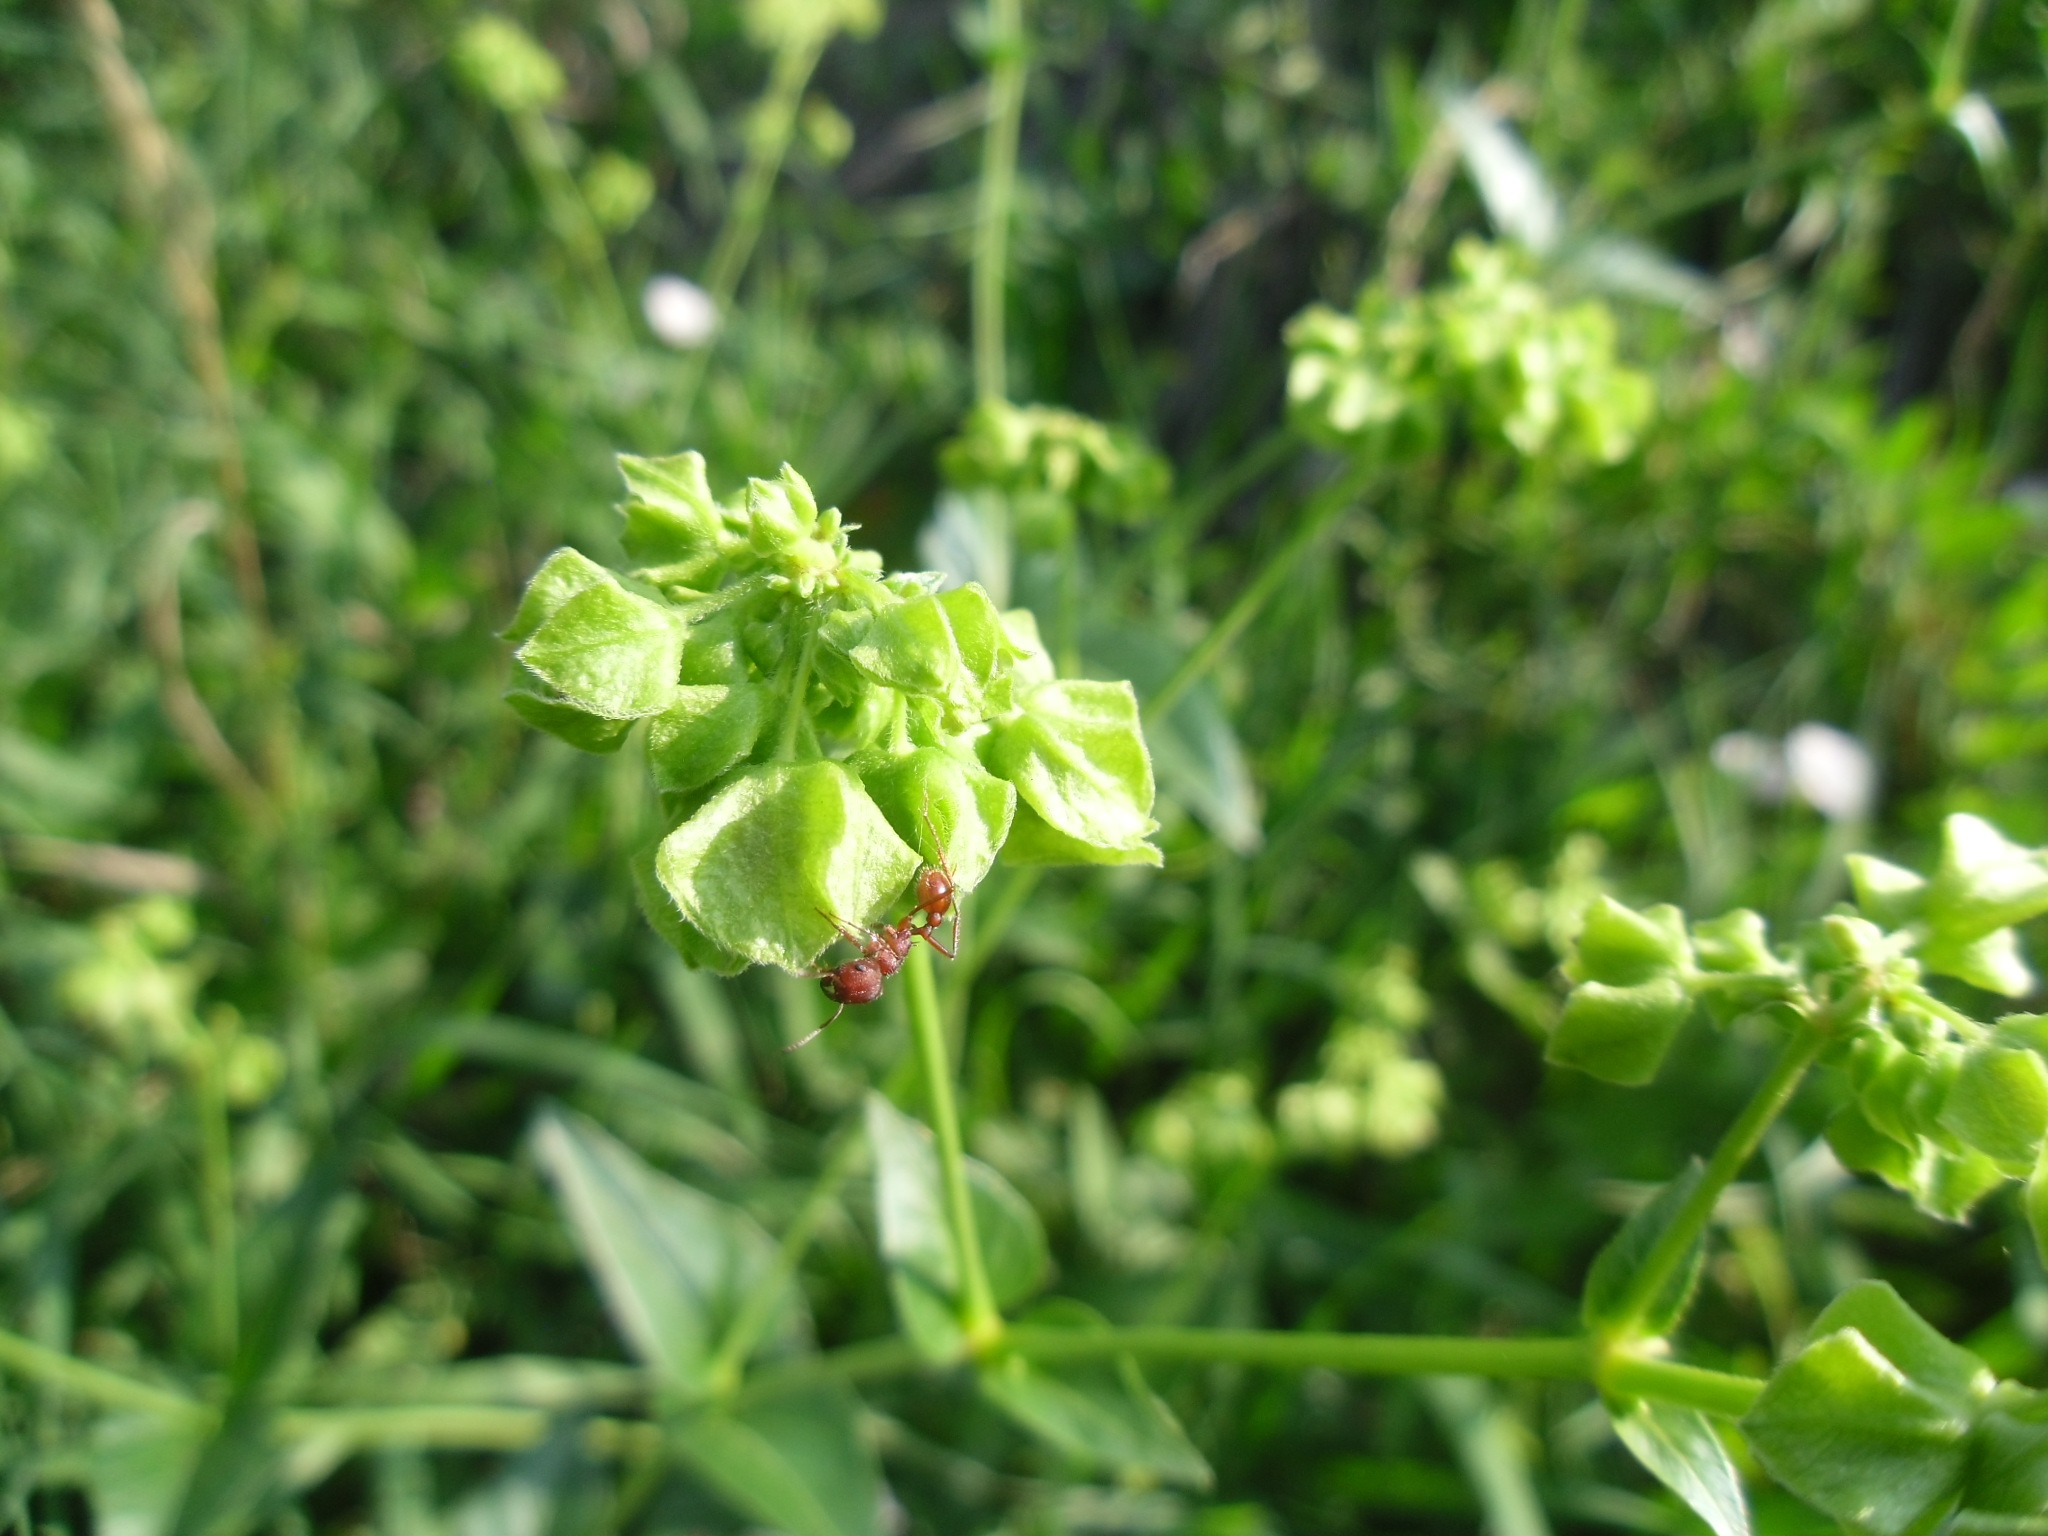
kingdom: Animalia
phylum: Arthropoda
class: Insecta
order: Hymenoptera
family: Formicidae
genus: Pogonomyrmex
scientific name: Pogonomyrmex occidentalis
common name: Western harvester ant
